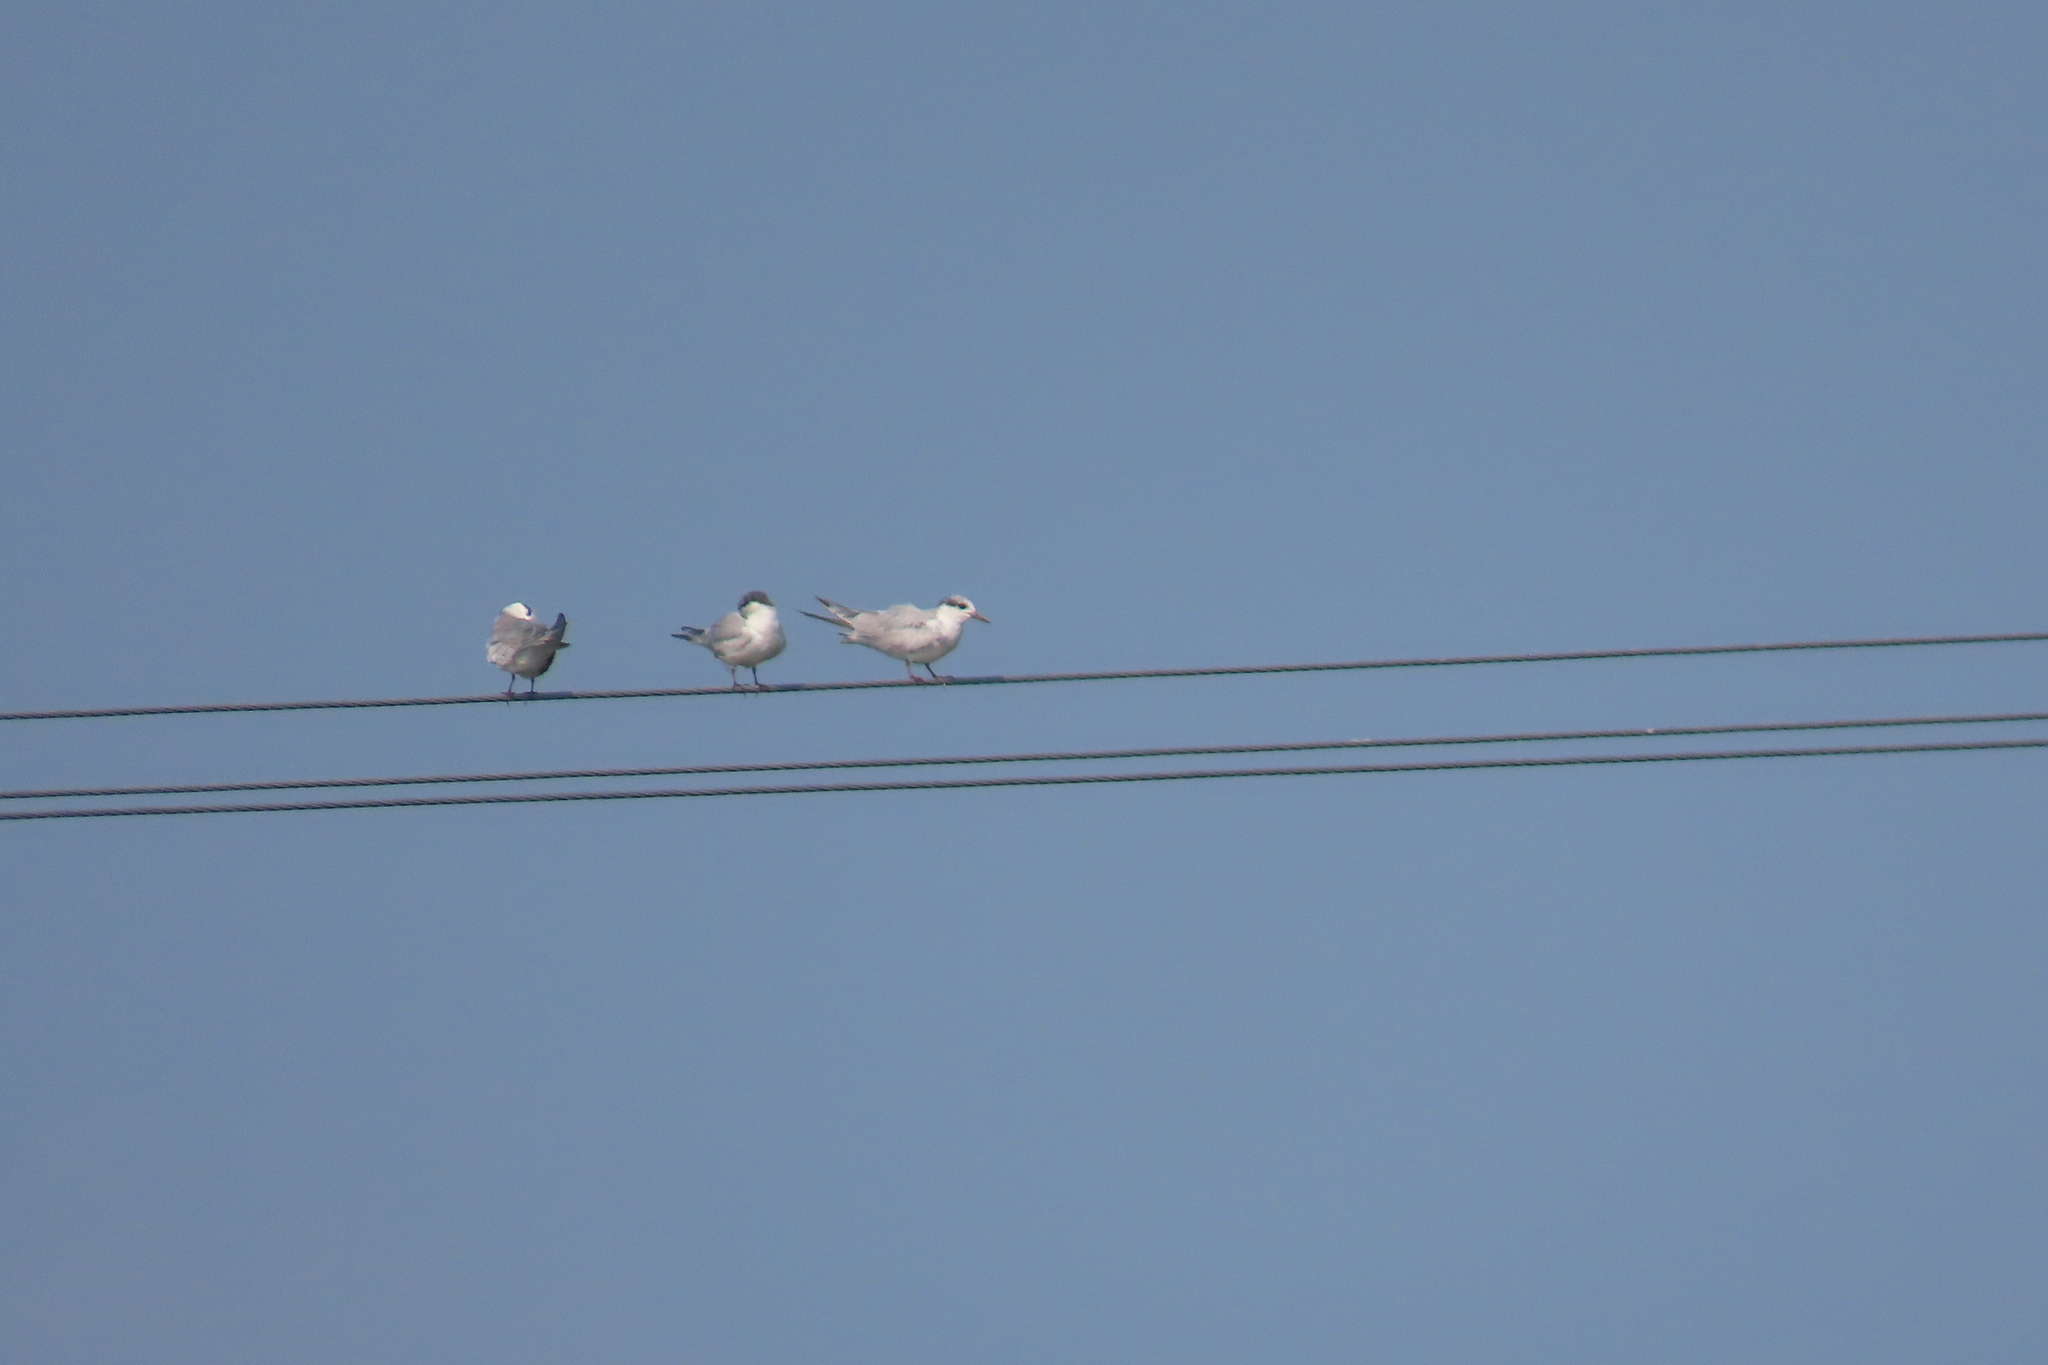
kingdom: Animalia
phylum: Chordata
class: Aves
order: Charadriiformes
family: Laridae
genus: Chlidonias
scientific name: Chlidonias hybrida
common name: Whiskered tern
